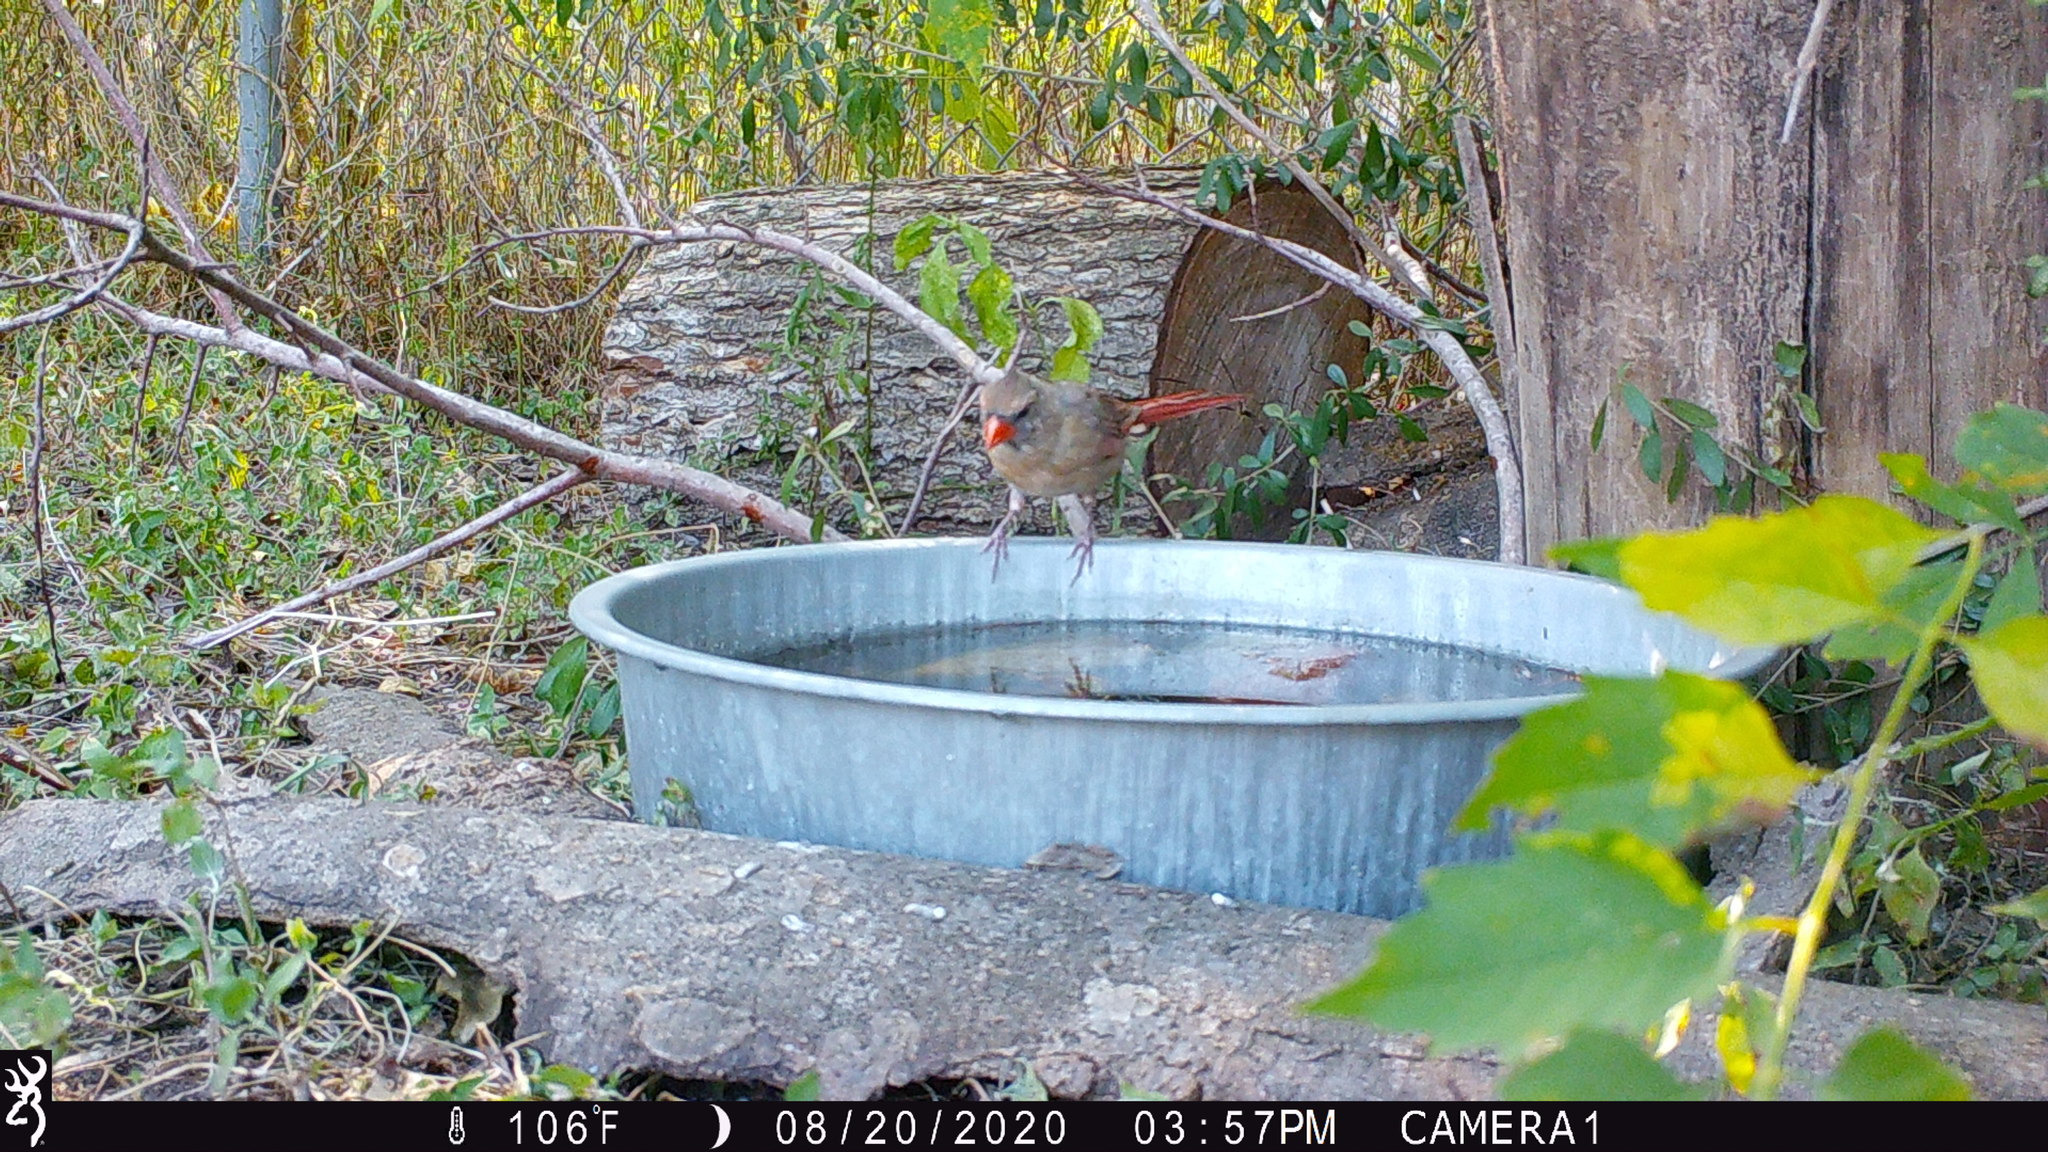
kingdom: Animalia
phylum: Chordata
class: Aves
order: Passeriformes
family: Cardinalidae
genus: Cardinalis
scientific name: Cardinalis cardinalis
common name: Northern cardinal
